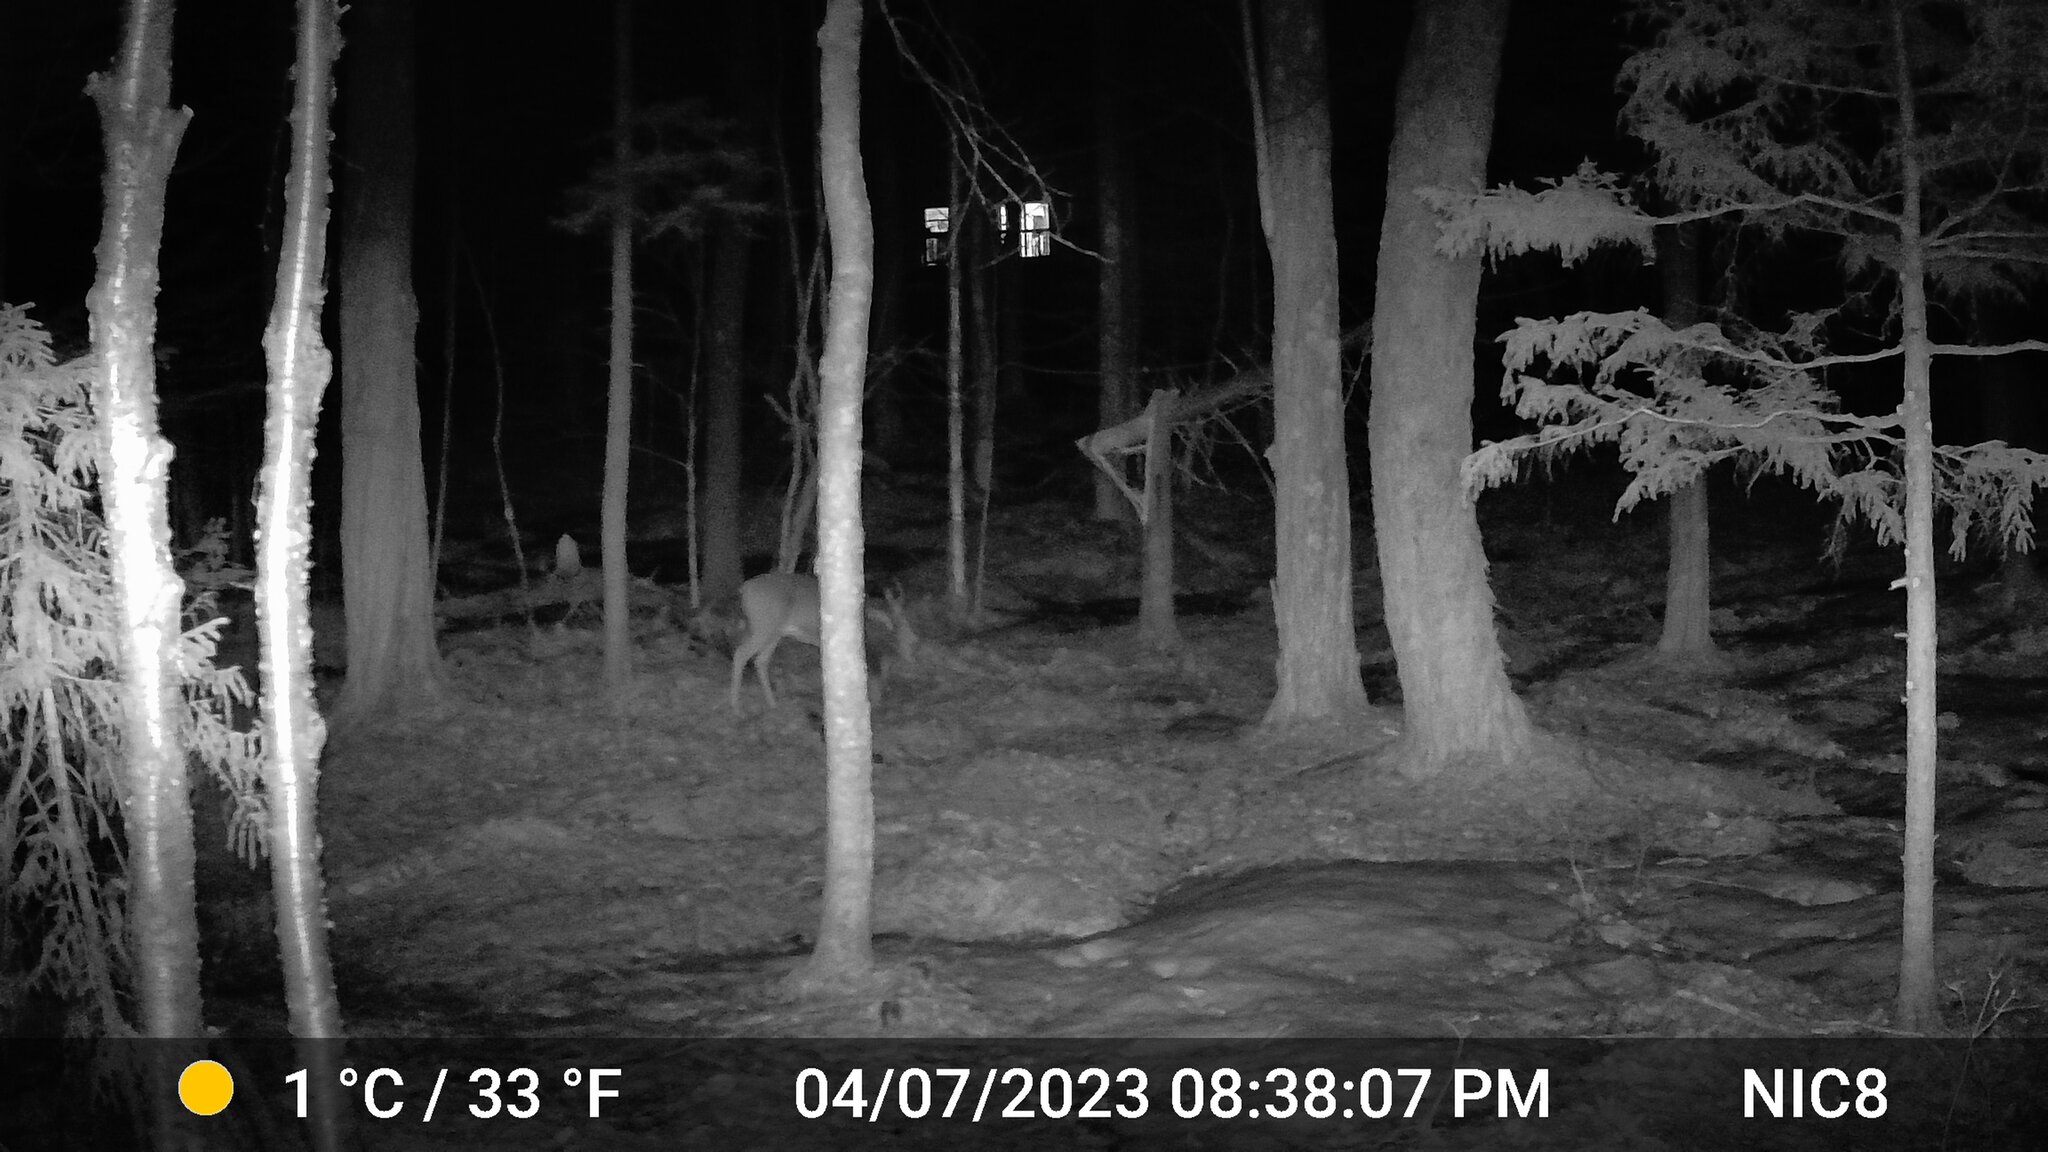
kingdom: Animalia
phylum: Chordata
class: Mammalia
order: Artiodactyla
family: Cervidae
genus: Odocoileus
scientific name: Odocoileus virginianus
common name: White-tailed deer
